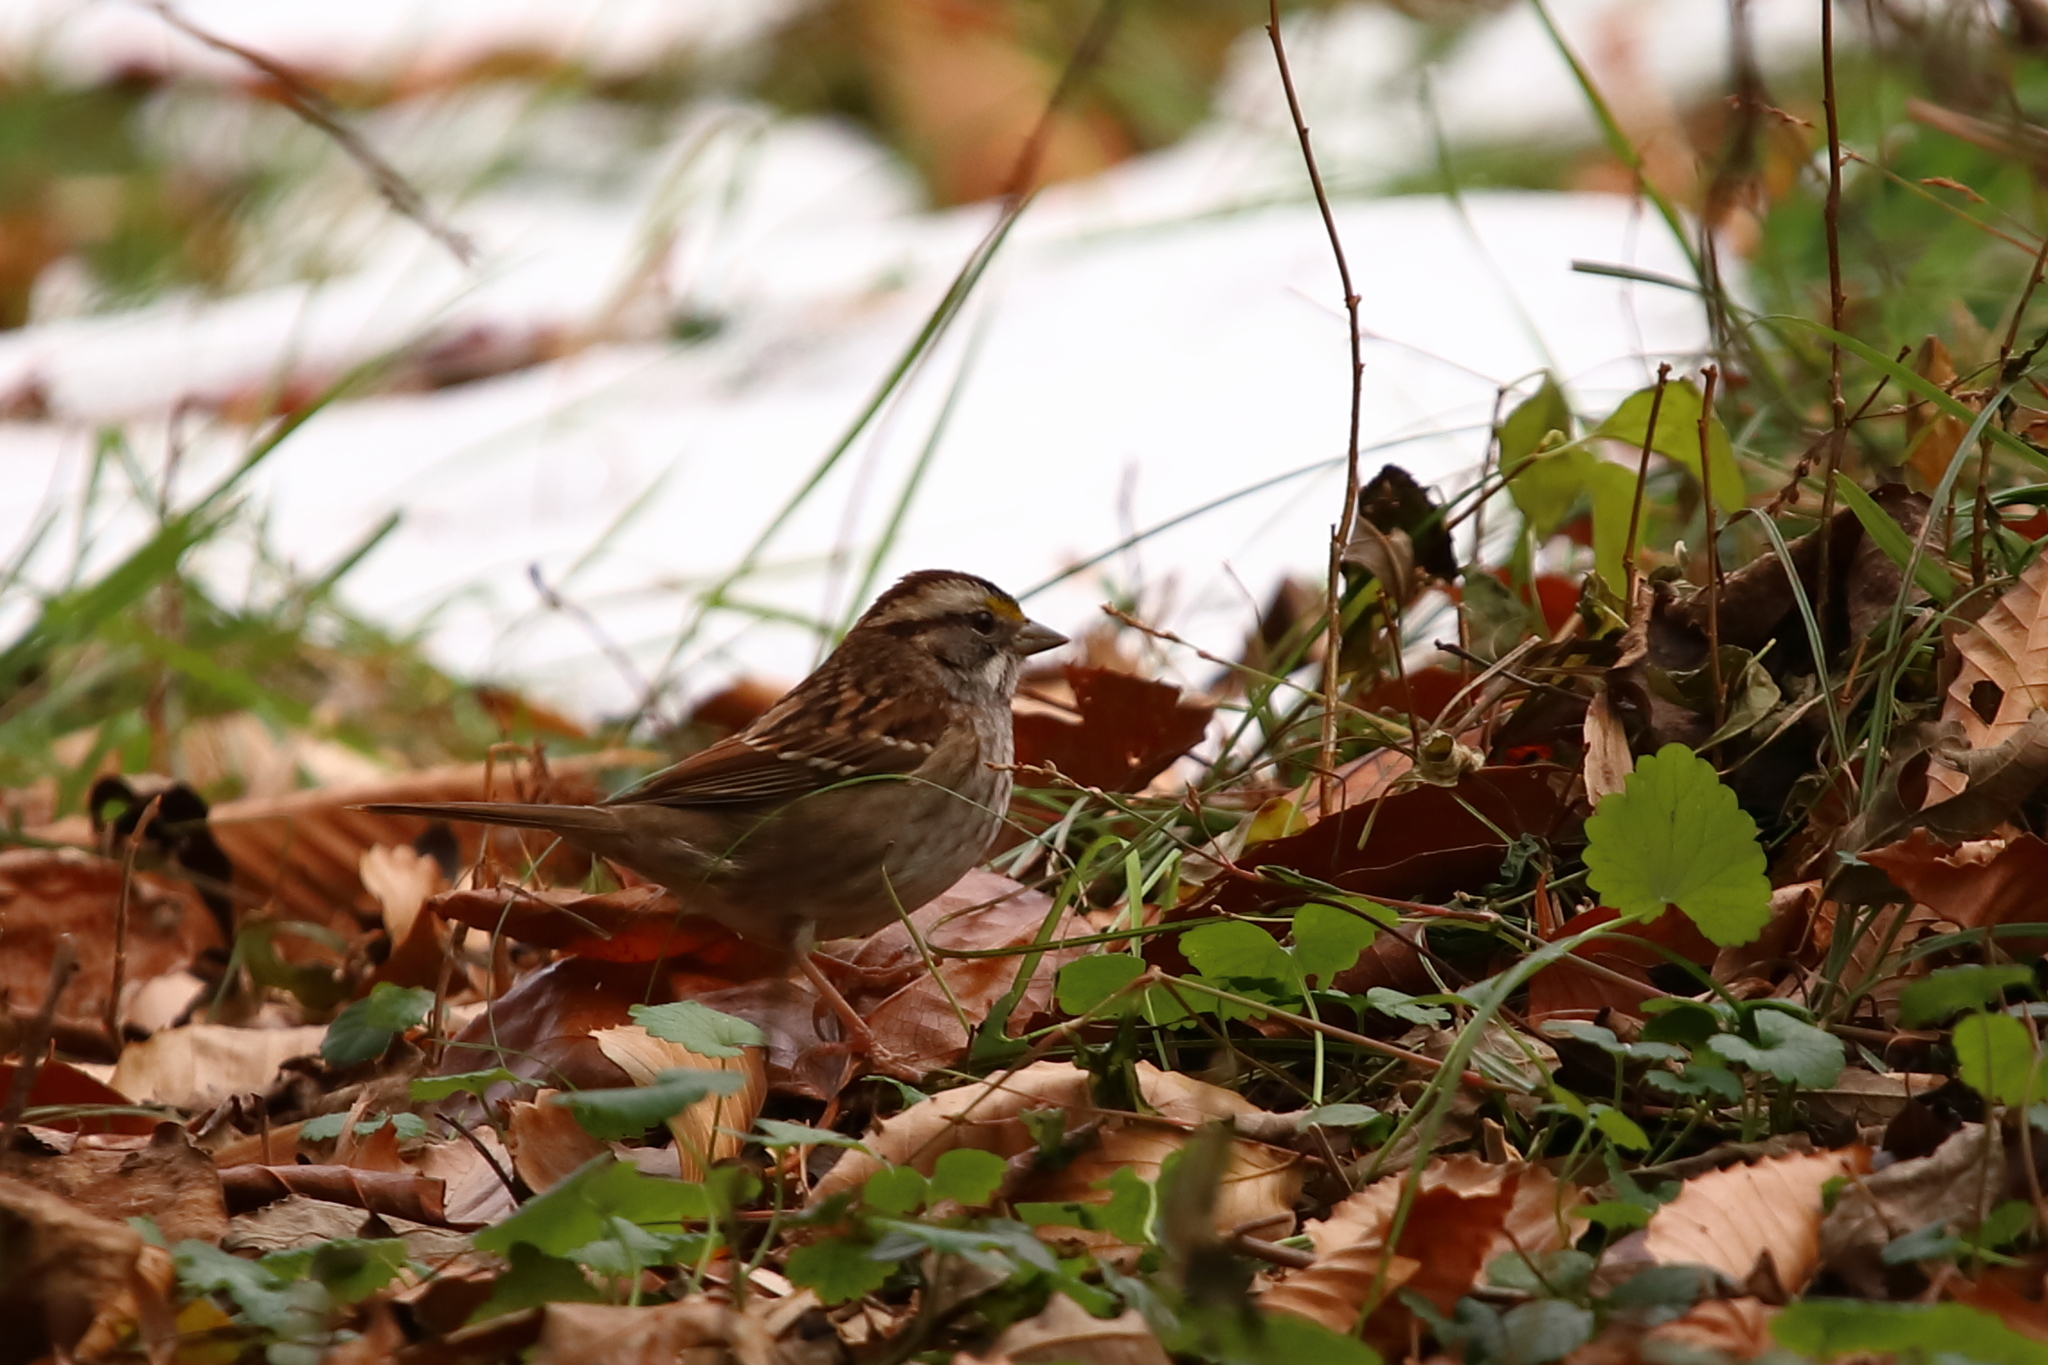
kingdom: Animalia
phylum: Chordata
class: Aves
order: Passeriformes
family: Passerellidae
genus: Zonotrichia
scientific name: Zonotrichia albicollis
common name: White-throated sparrow
